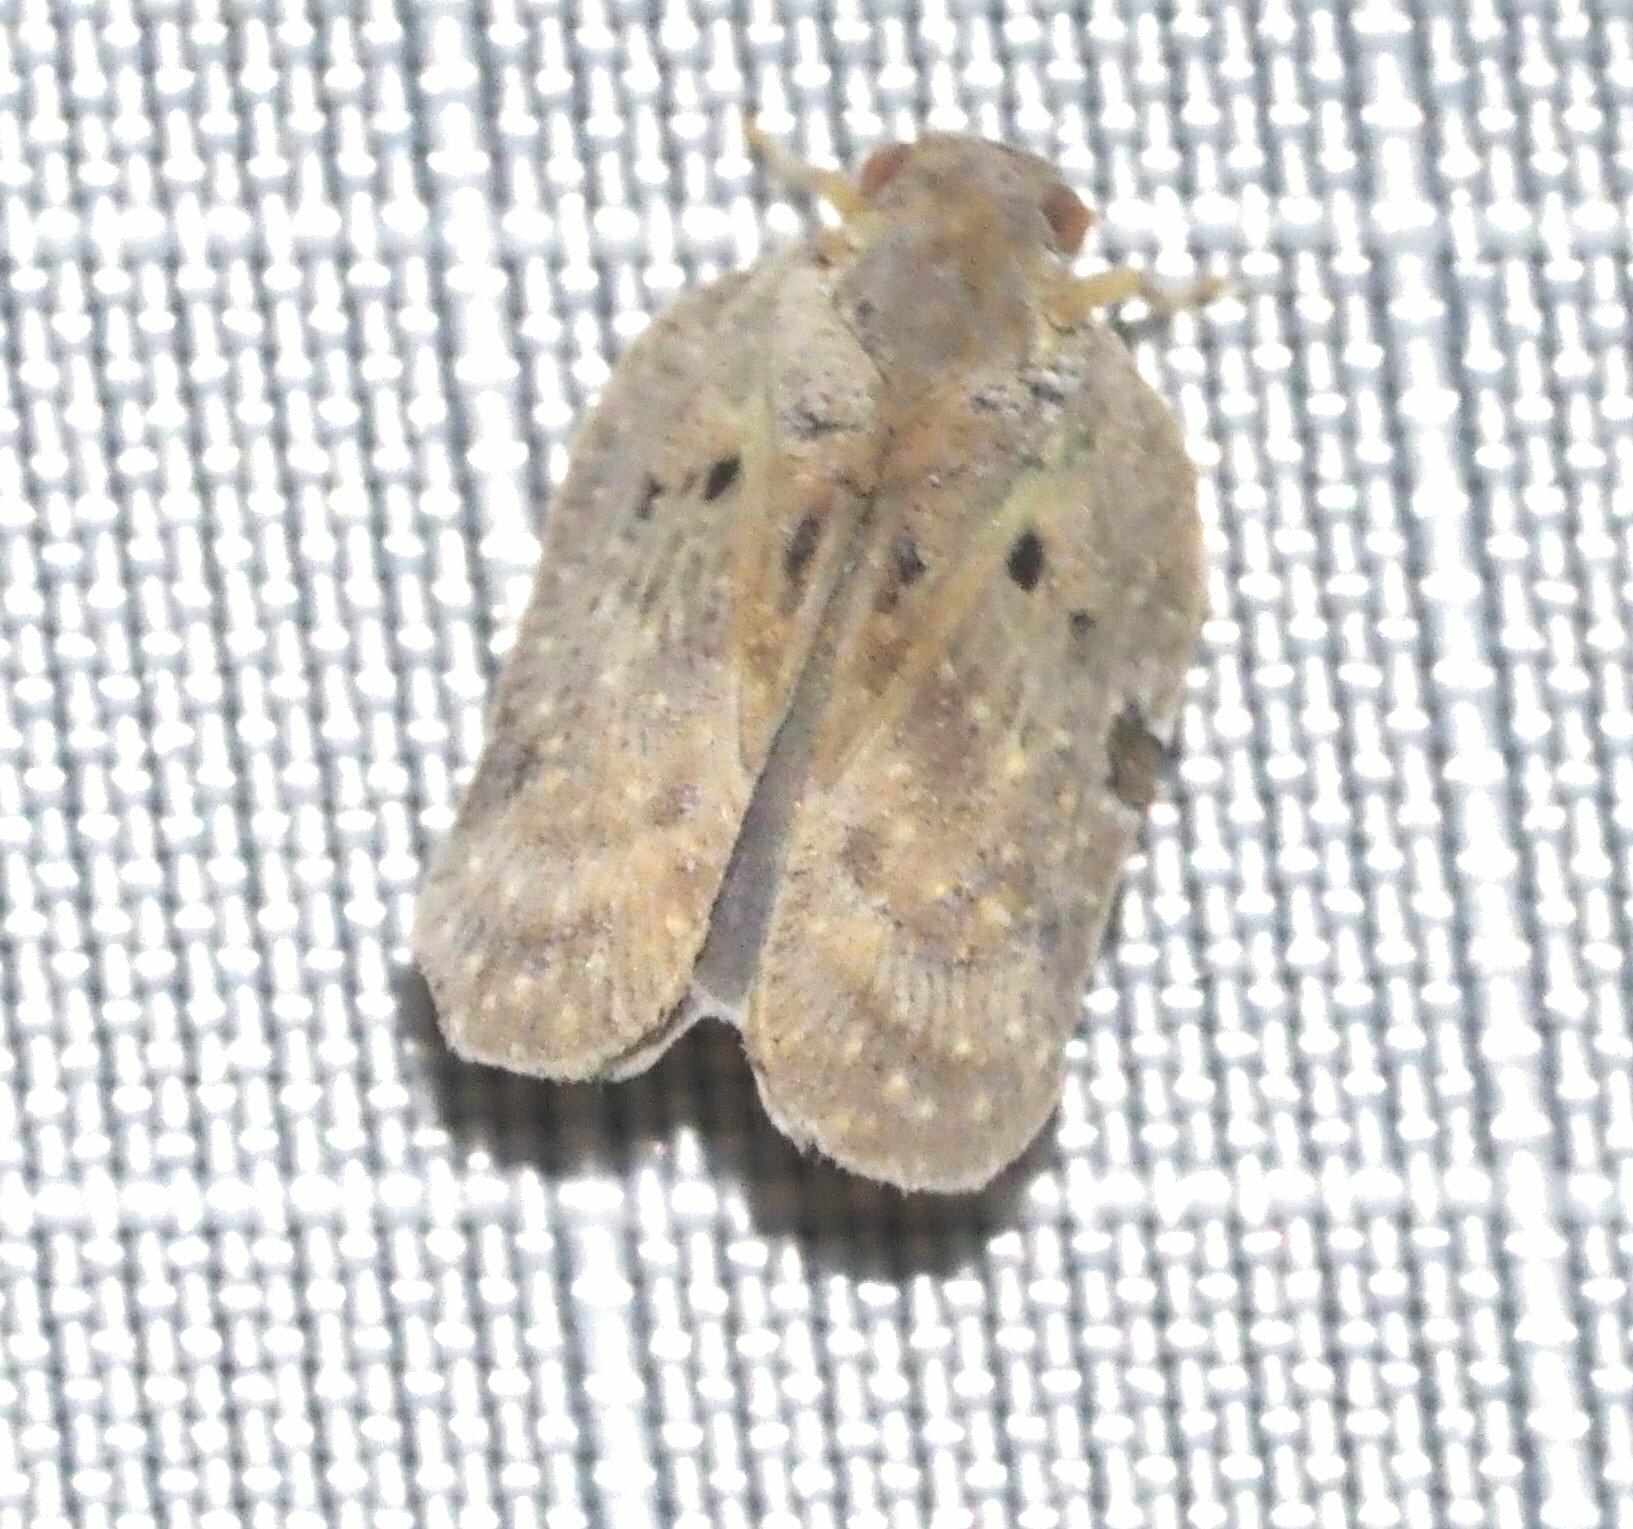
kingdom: Animalia
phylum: Arthropoda
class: Insecta
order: Hemiptera
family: Flatidae
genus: Melormenis
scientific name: Melormenis basalis
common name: Puerto rican planthopper
